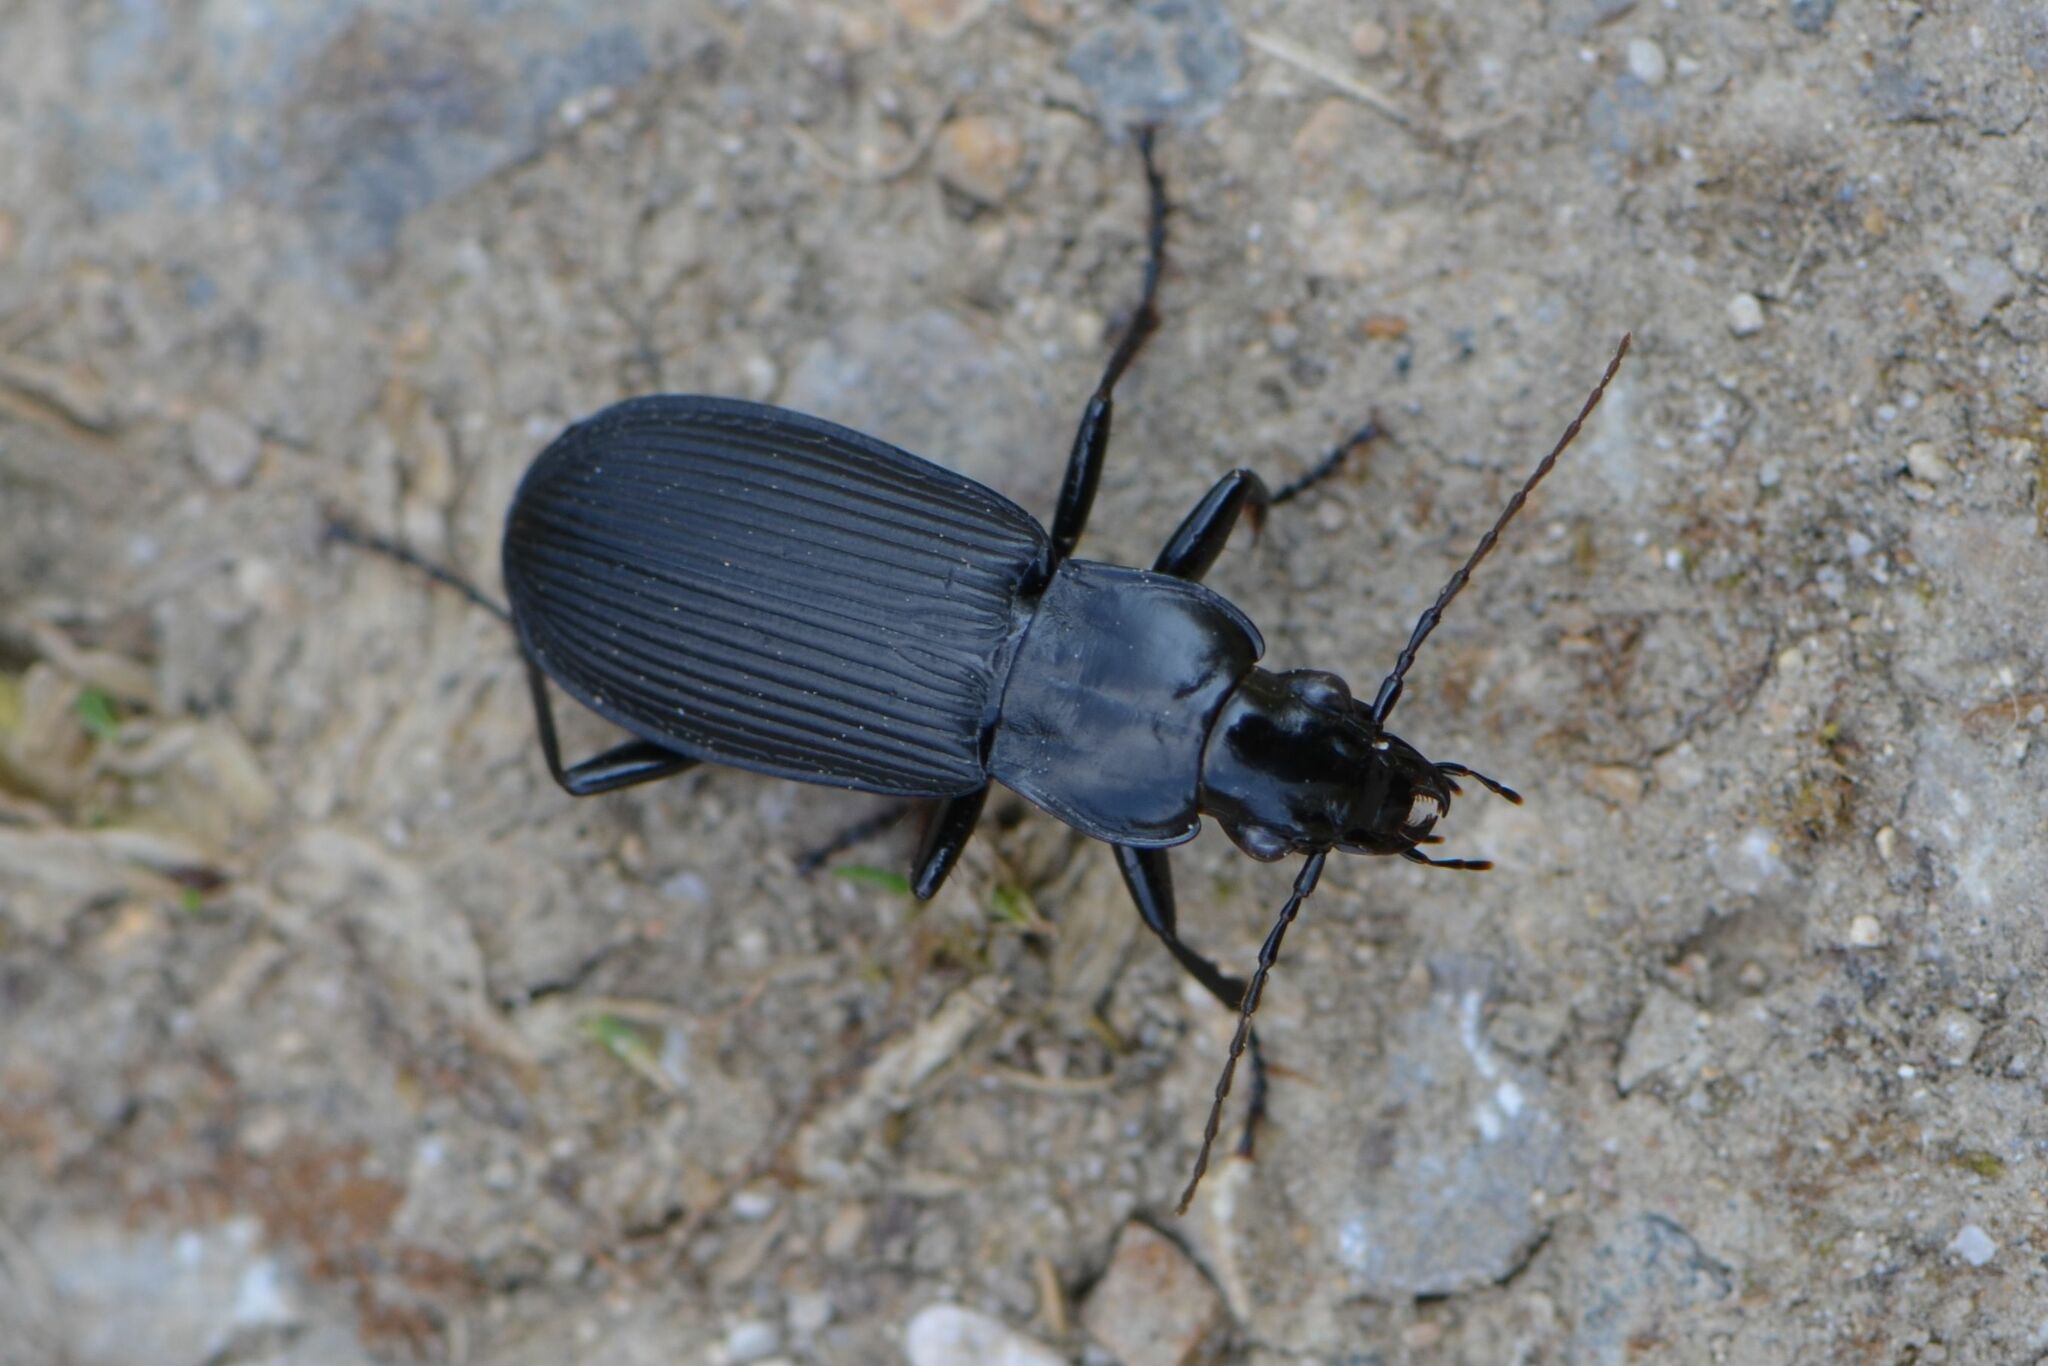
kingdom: Animalia
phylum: Arthropoda
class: Insecta
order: Coleoptera
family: Carabidae
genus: Pterostichus
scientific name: Pterostichus niger
